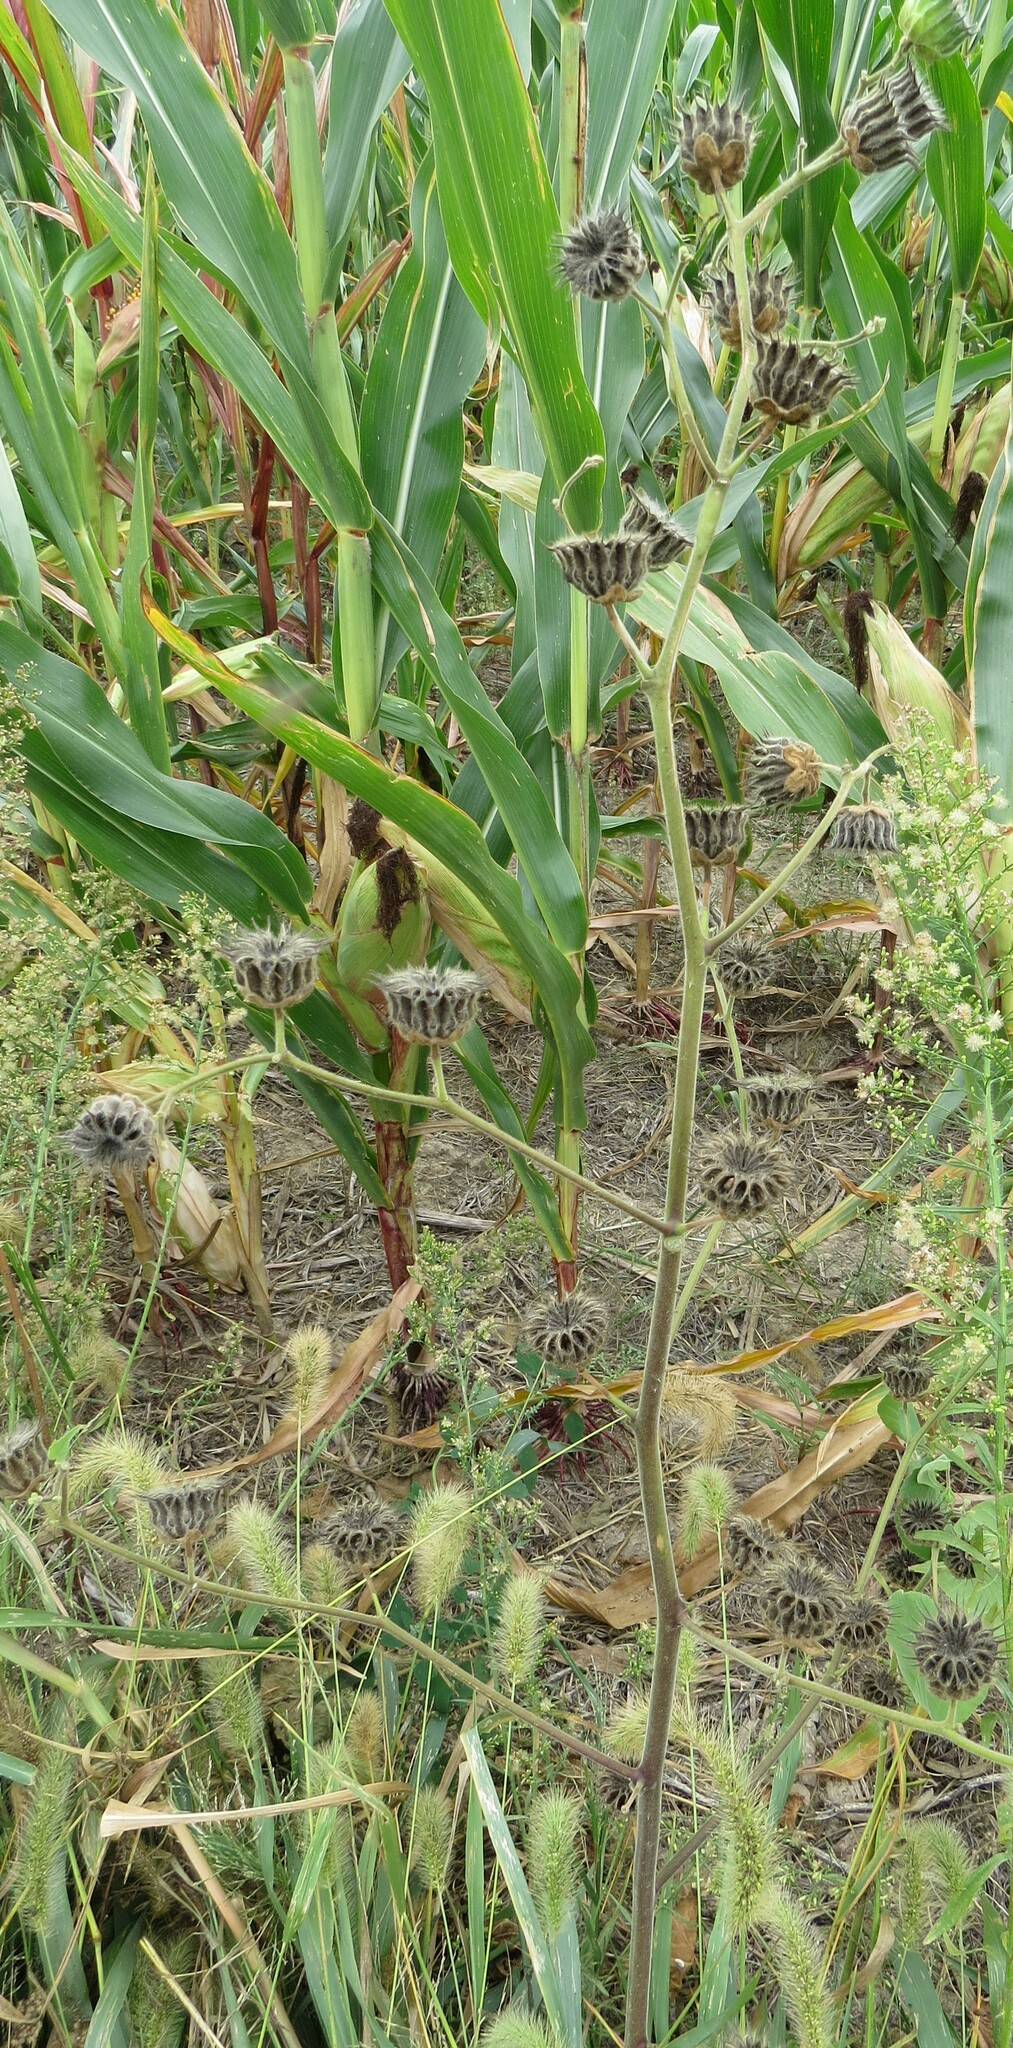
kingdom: Plantae
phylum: Tracheophyta
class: Magnoliopsida
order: Malvales
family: Malvaceae
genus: Abutilon
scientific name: Abutilon theophrasti
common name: Velvetleaf
